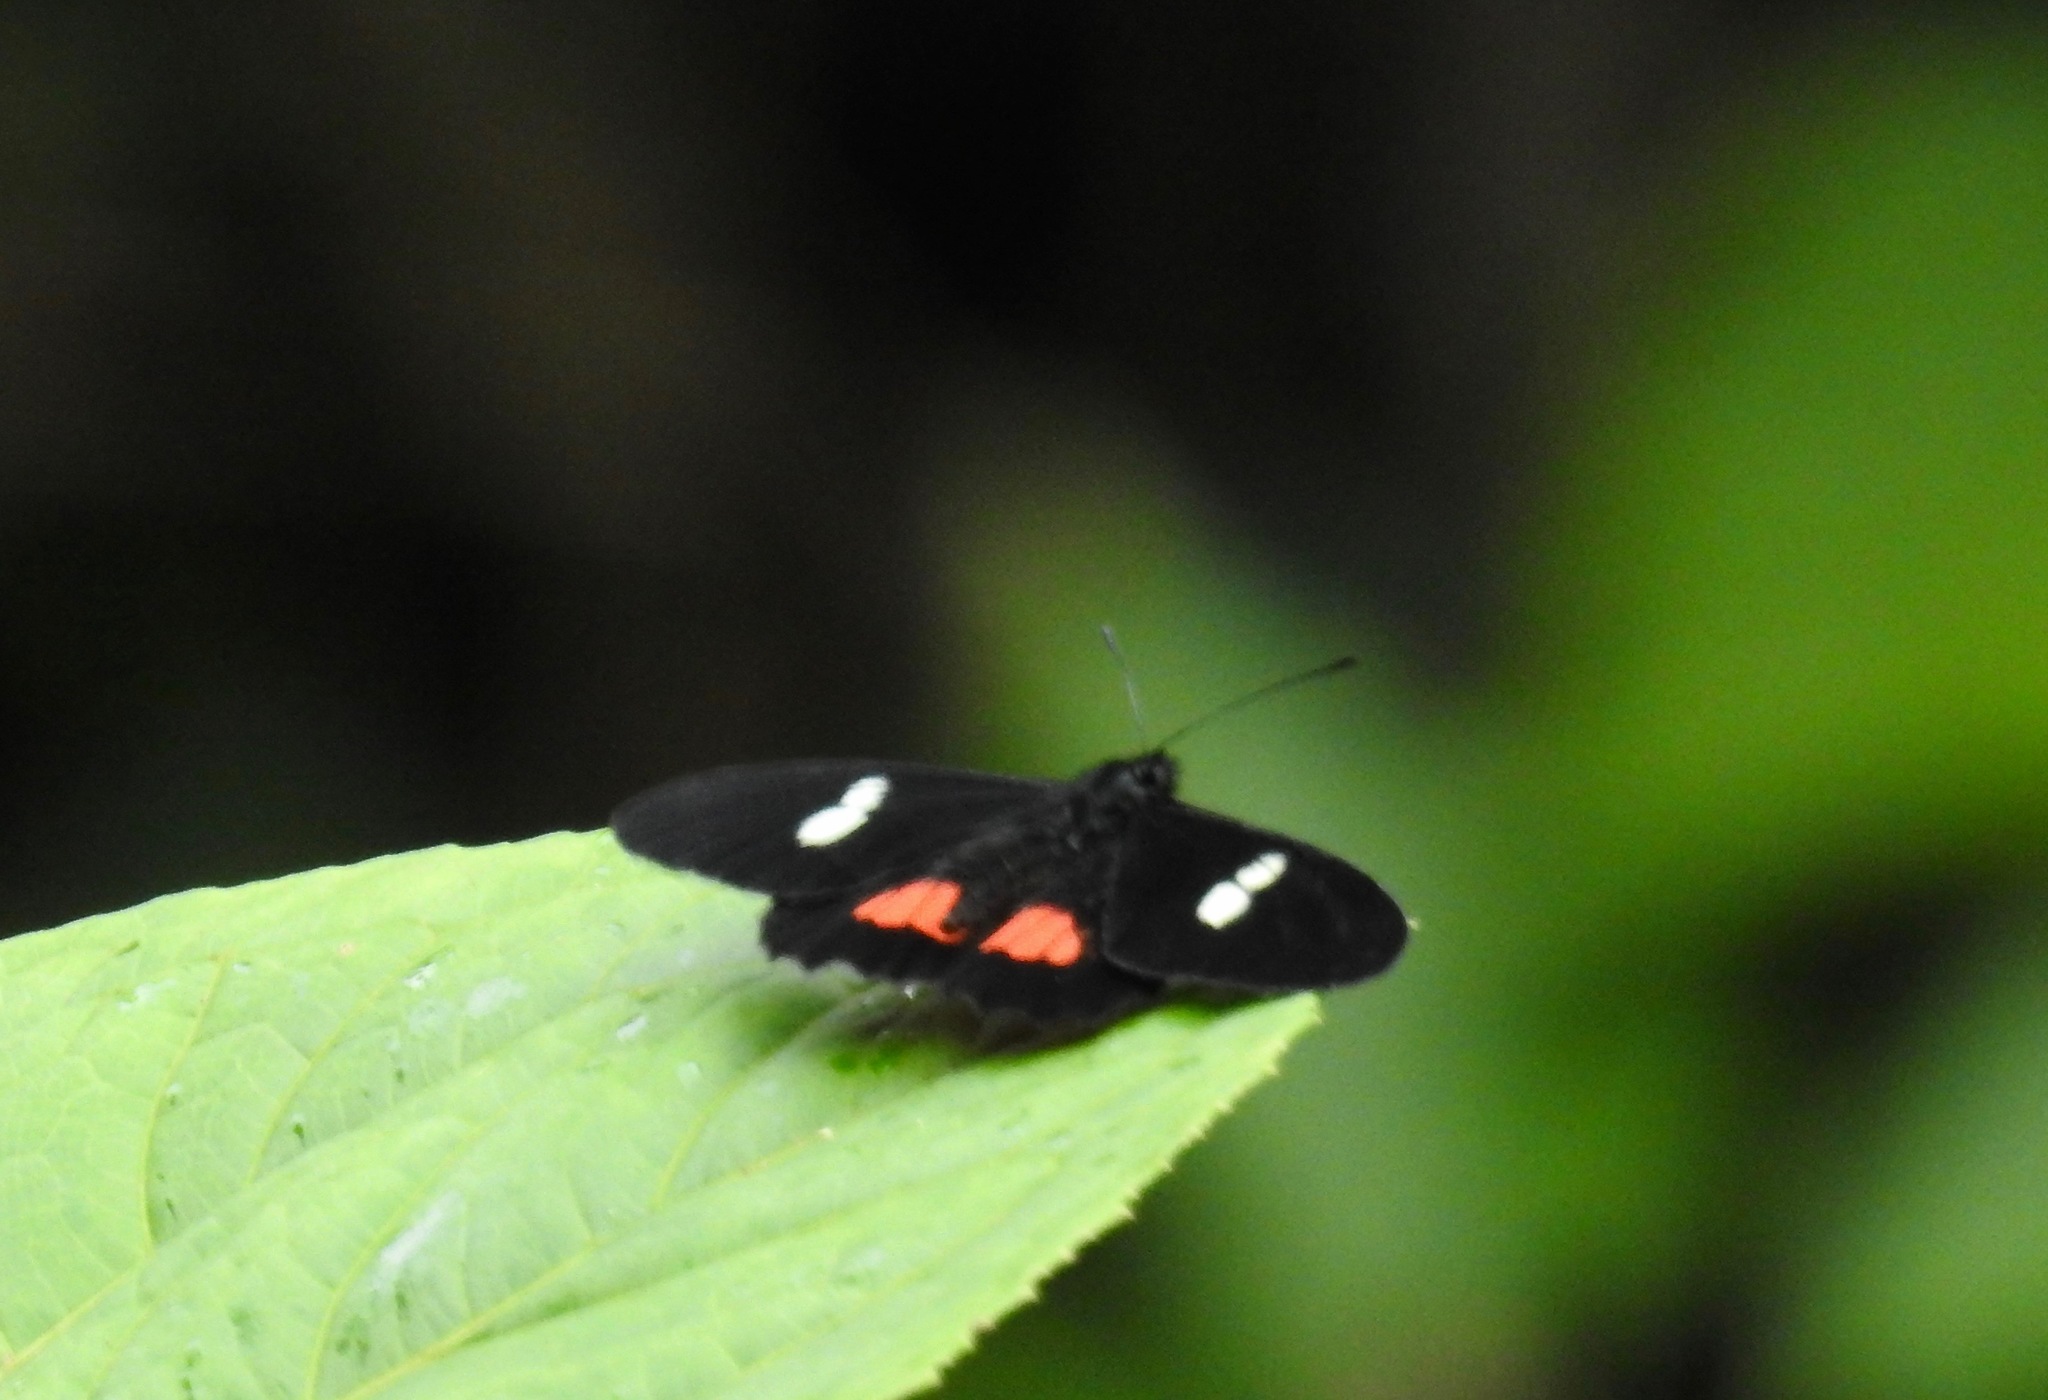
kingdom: Animalia
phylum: Arthropoda
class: Insecta
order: Lepidoptera
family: Pieridae
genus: Archonias
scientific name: Archonias brassolis
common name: Cattleheart white
